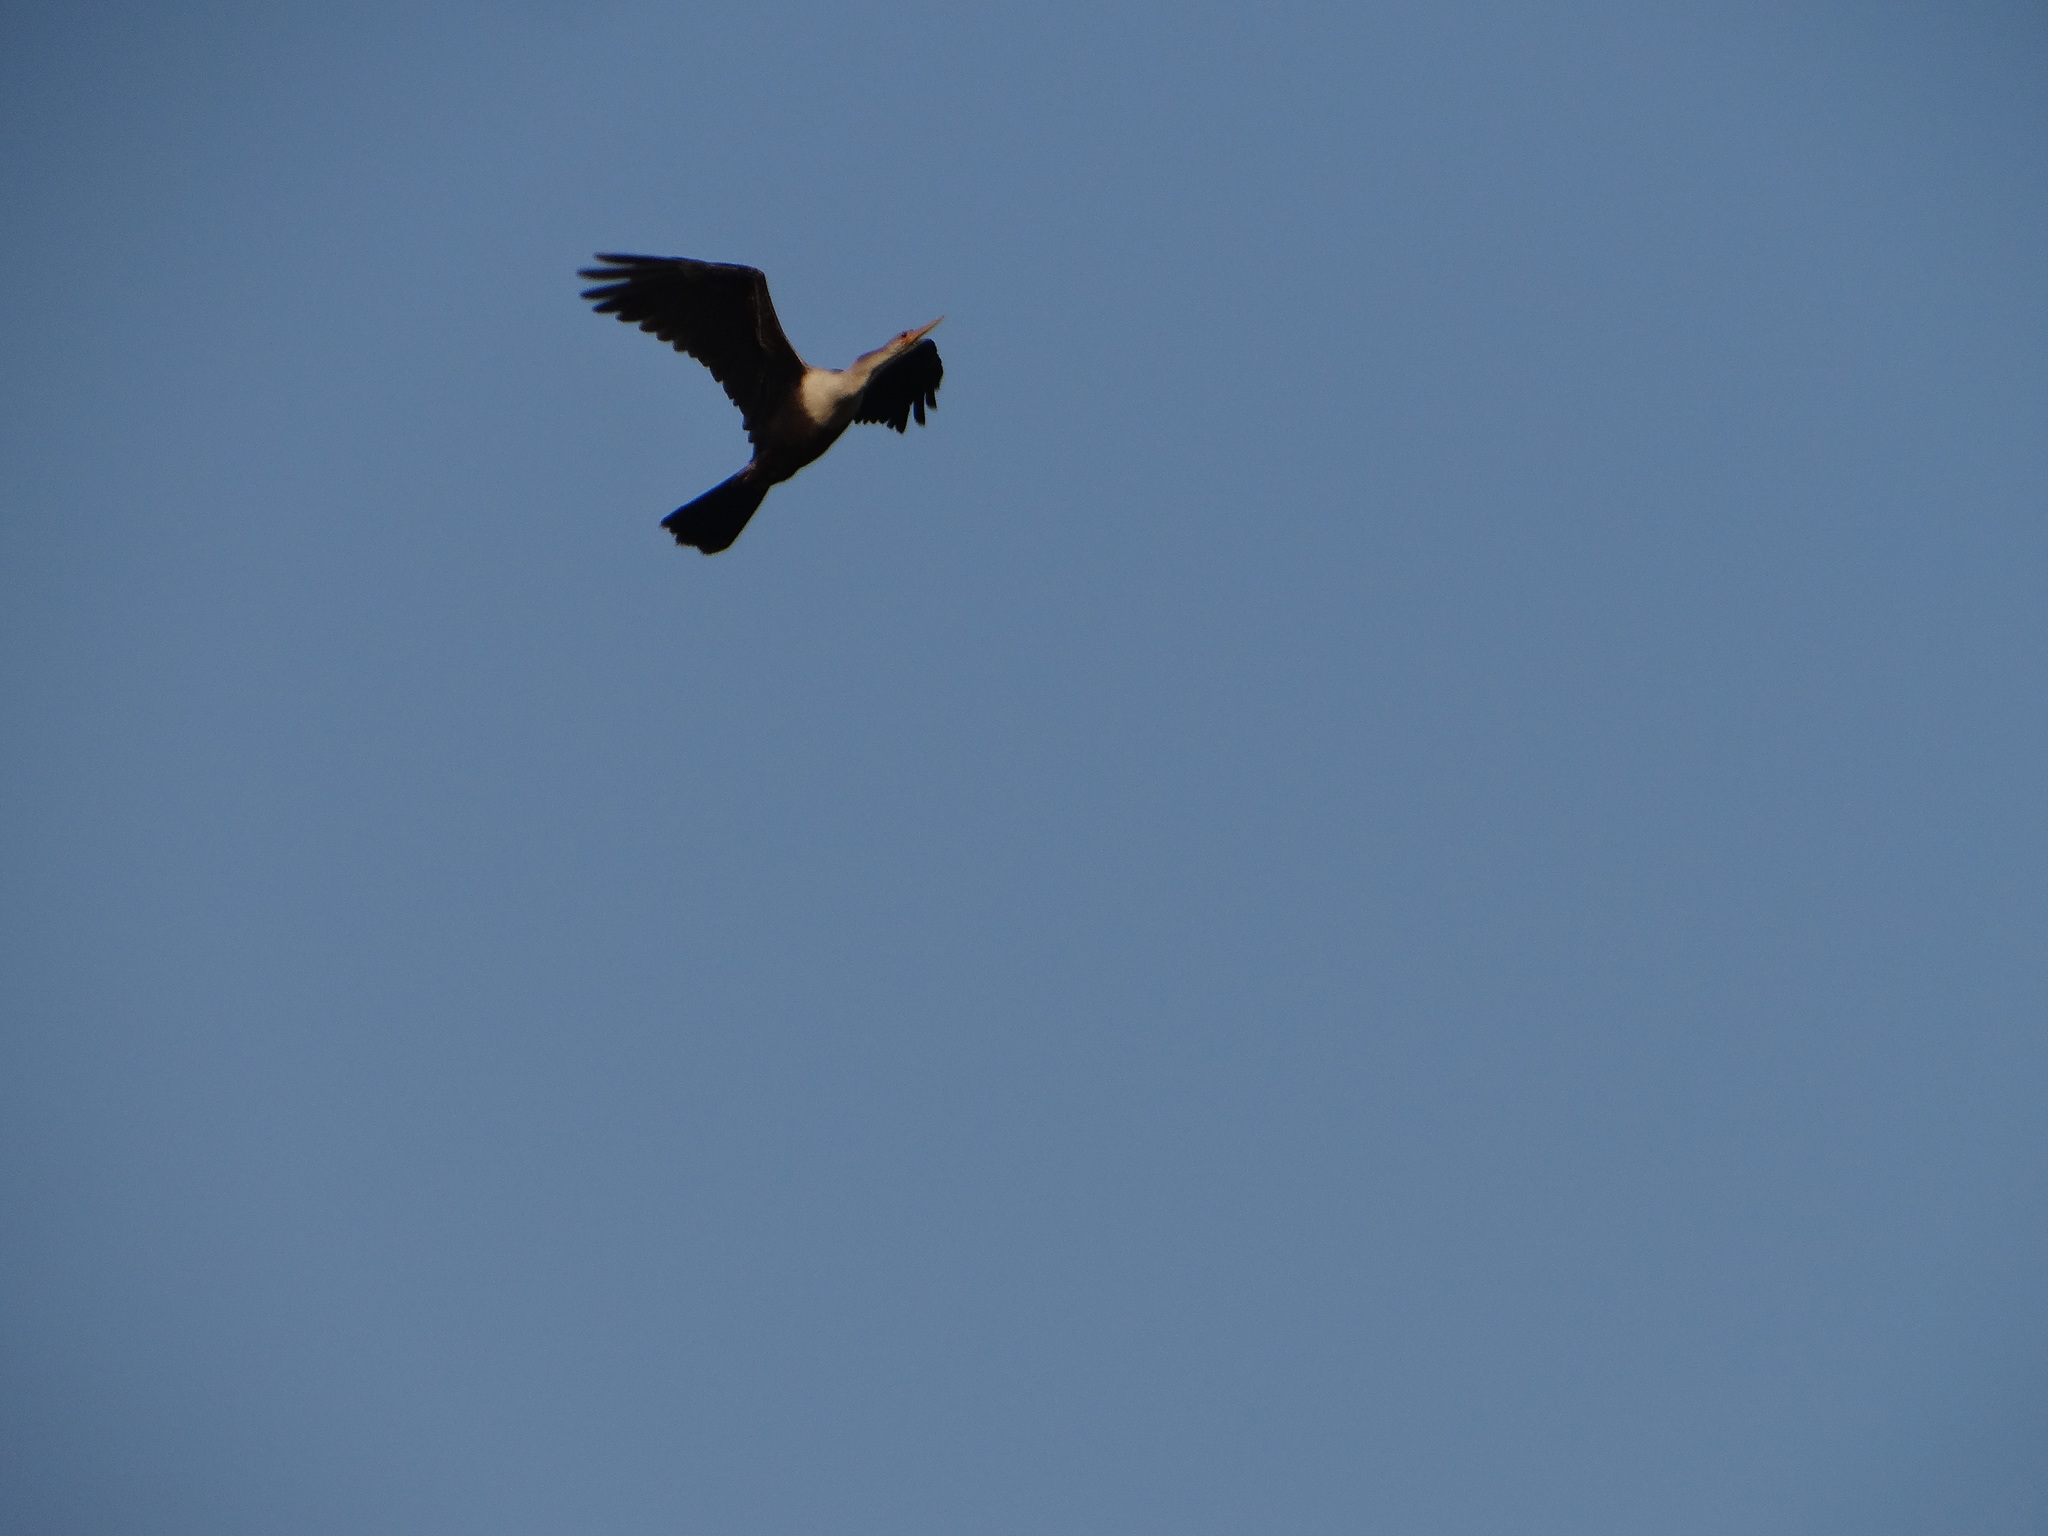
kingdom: Animalia
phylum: Chordata
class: Aves
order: Suliformes
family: Anhingidae
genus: Anhinga
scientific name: Anhinga anhinga
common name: Anhinga
